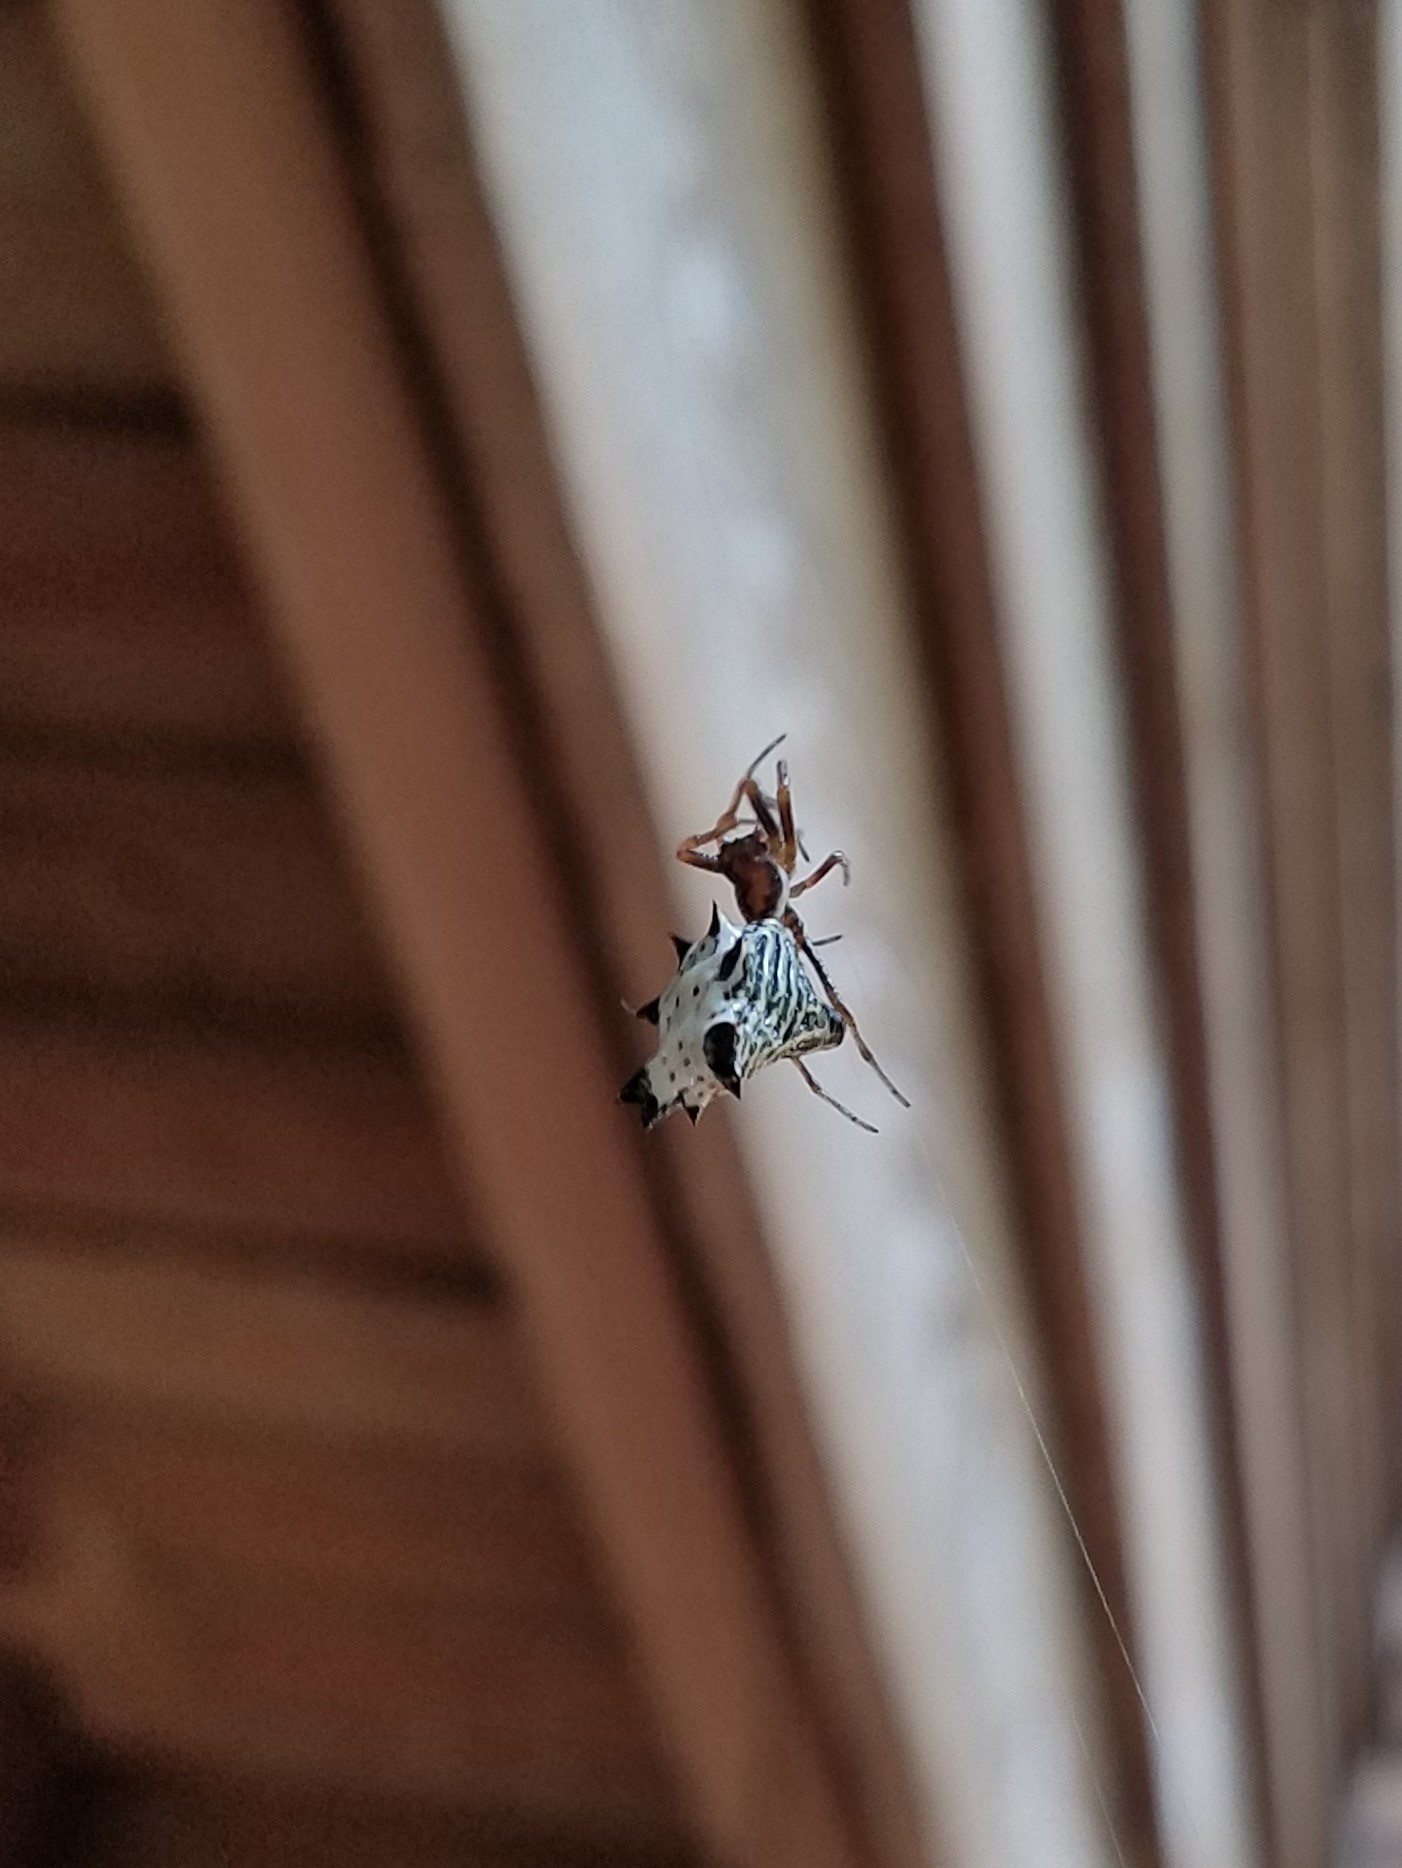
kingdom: Animalia
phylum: Arthropoda
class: Arachnida
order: Araneae
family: Araneidae
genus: Micrathena
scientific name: Micrathena gracilis
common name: Orb weavers
